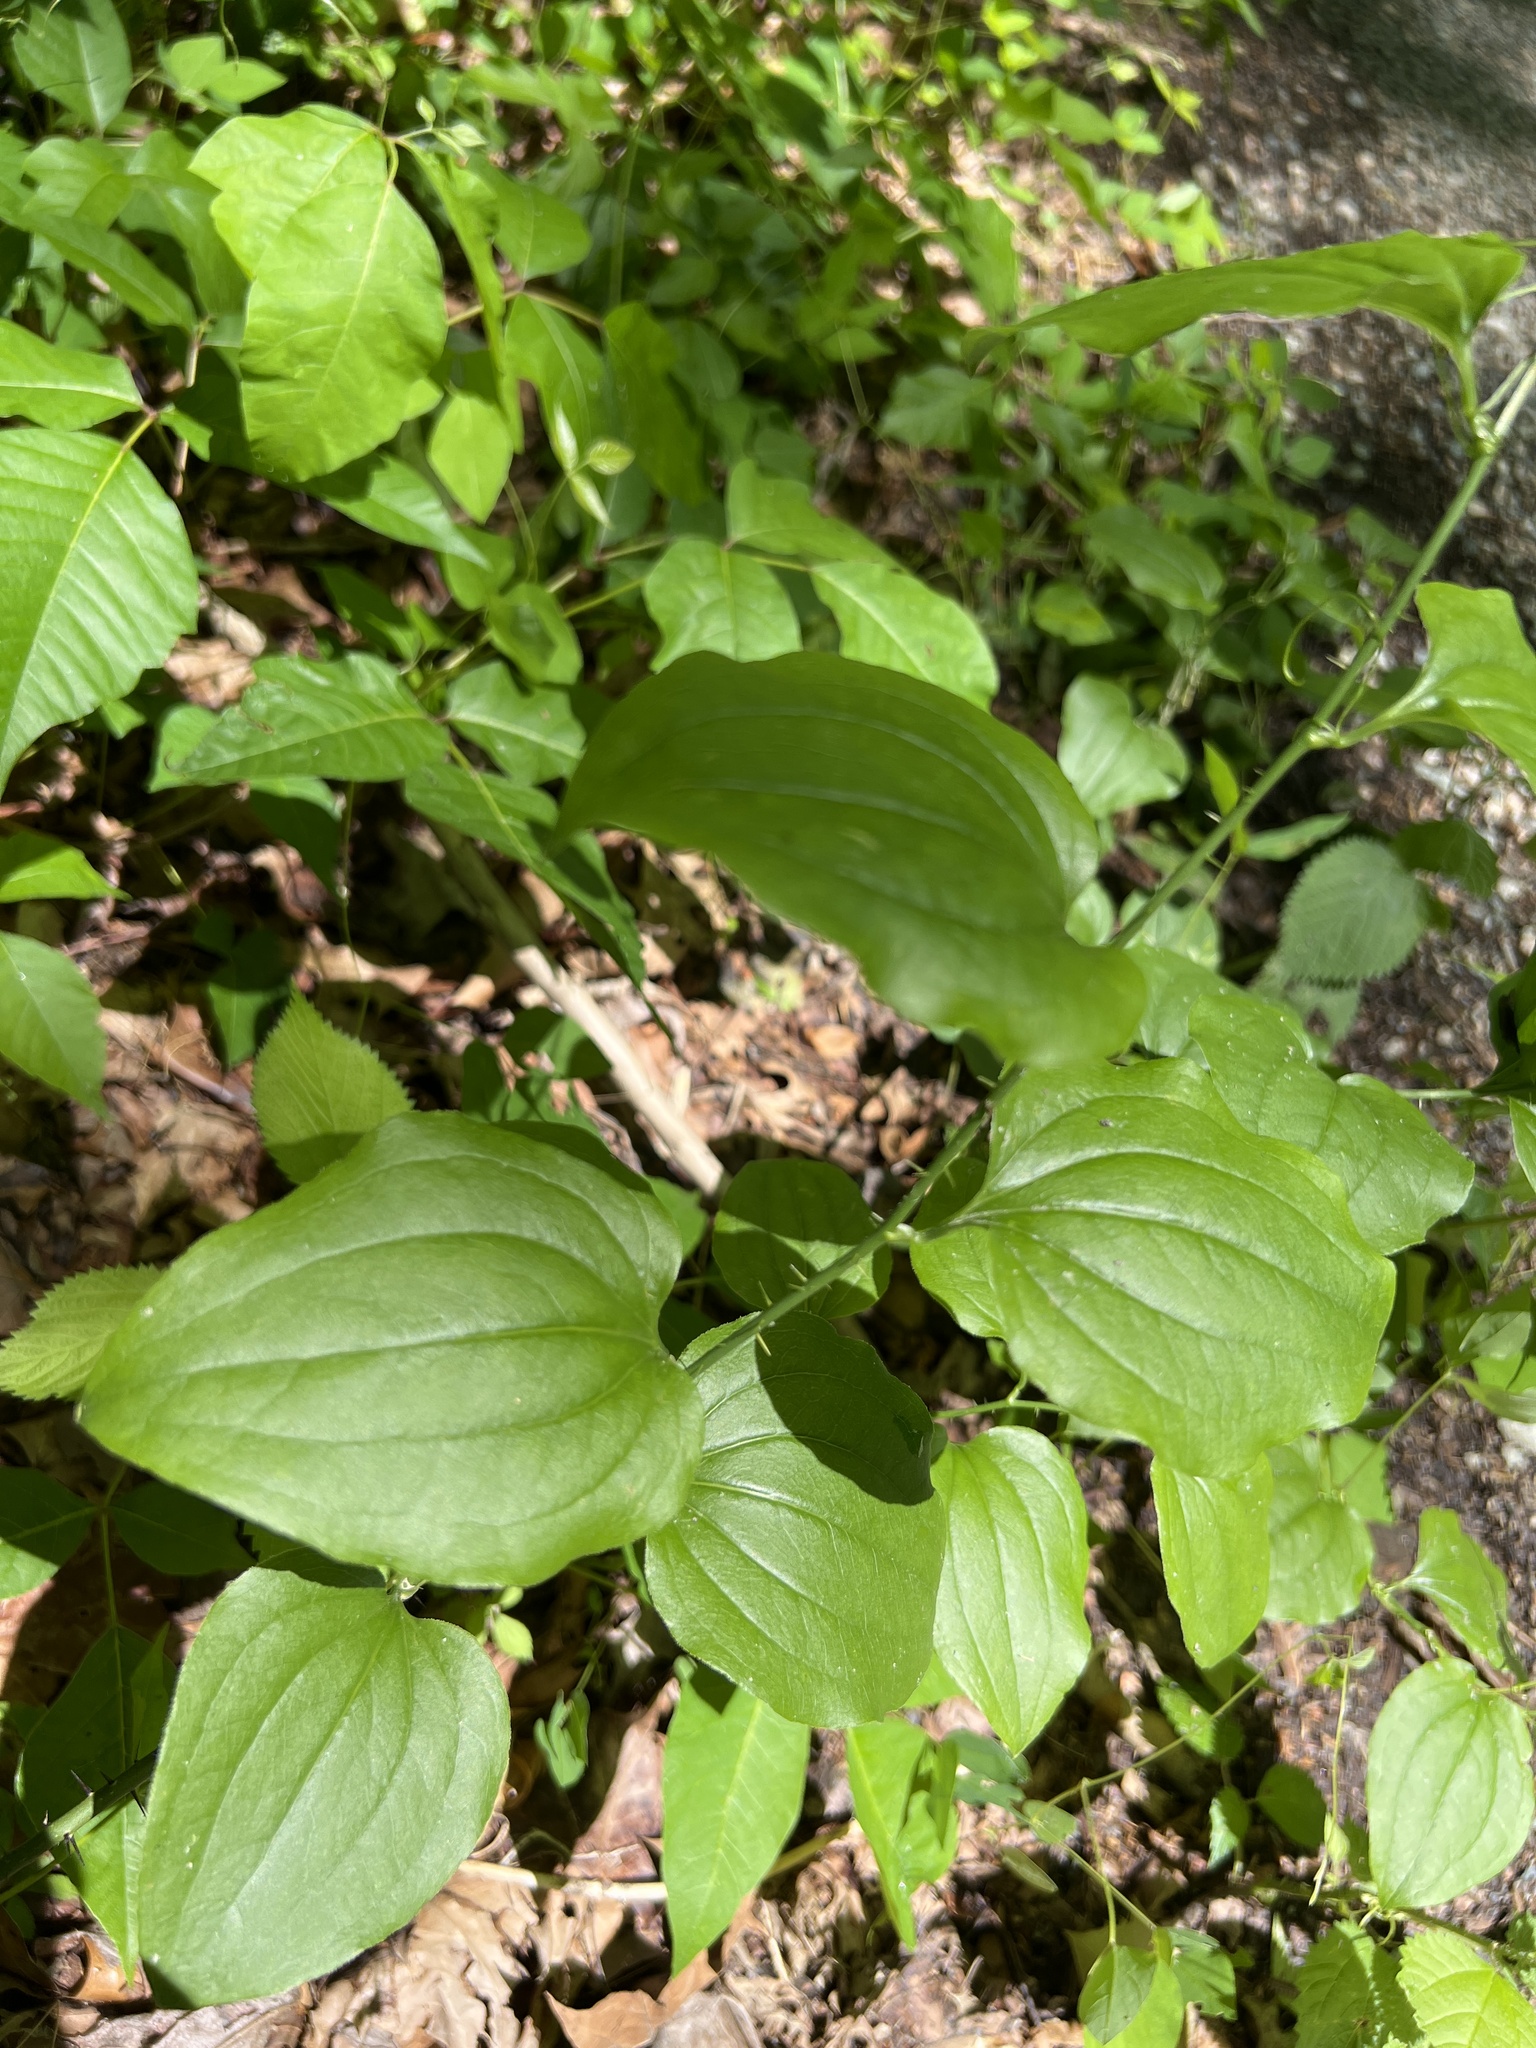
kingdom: Plantae
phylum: Tracheophyta
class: Liliopsida
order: Liliales
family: Smilacaceae
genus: Smilax
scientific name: Smilax tamnoides
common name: Hellfetter
